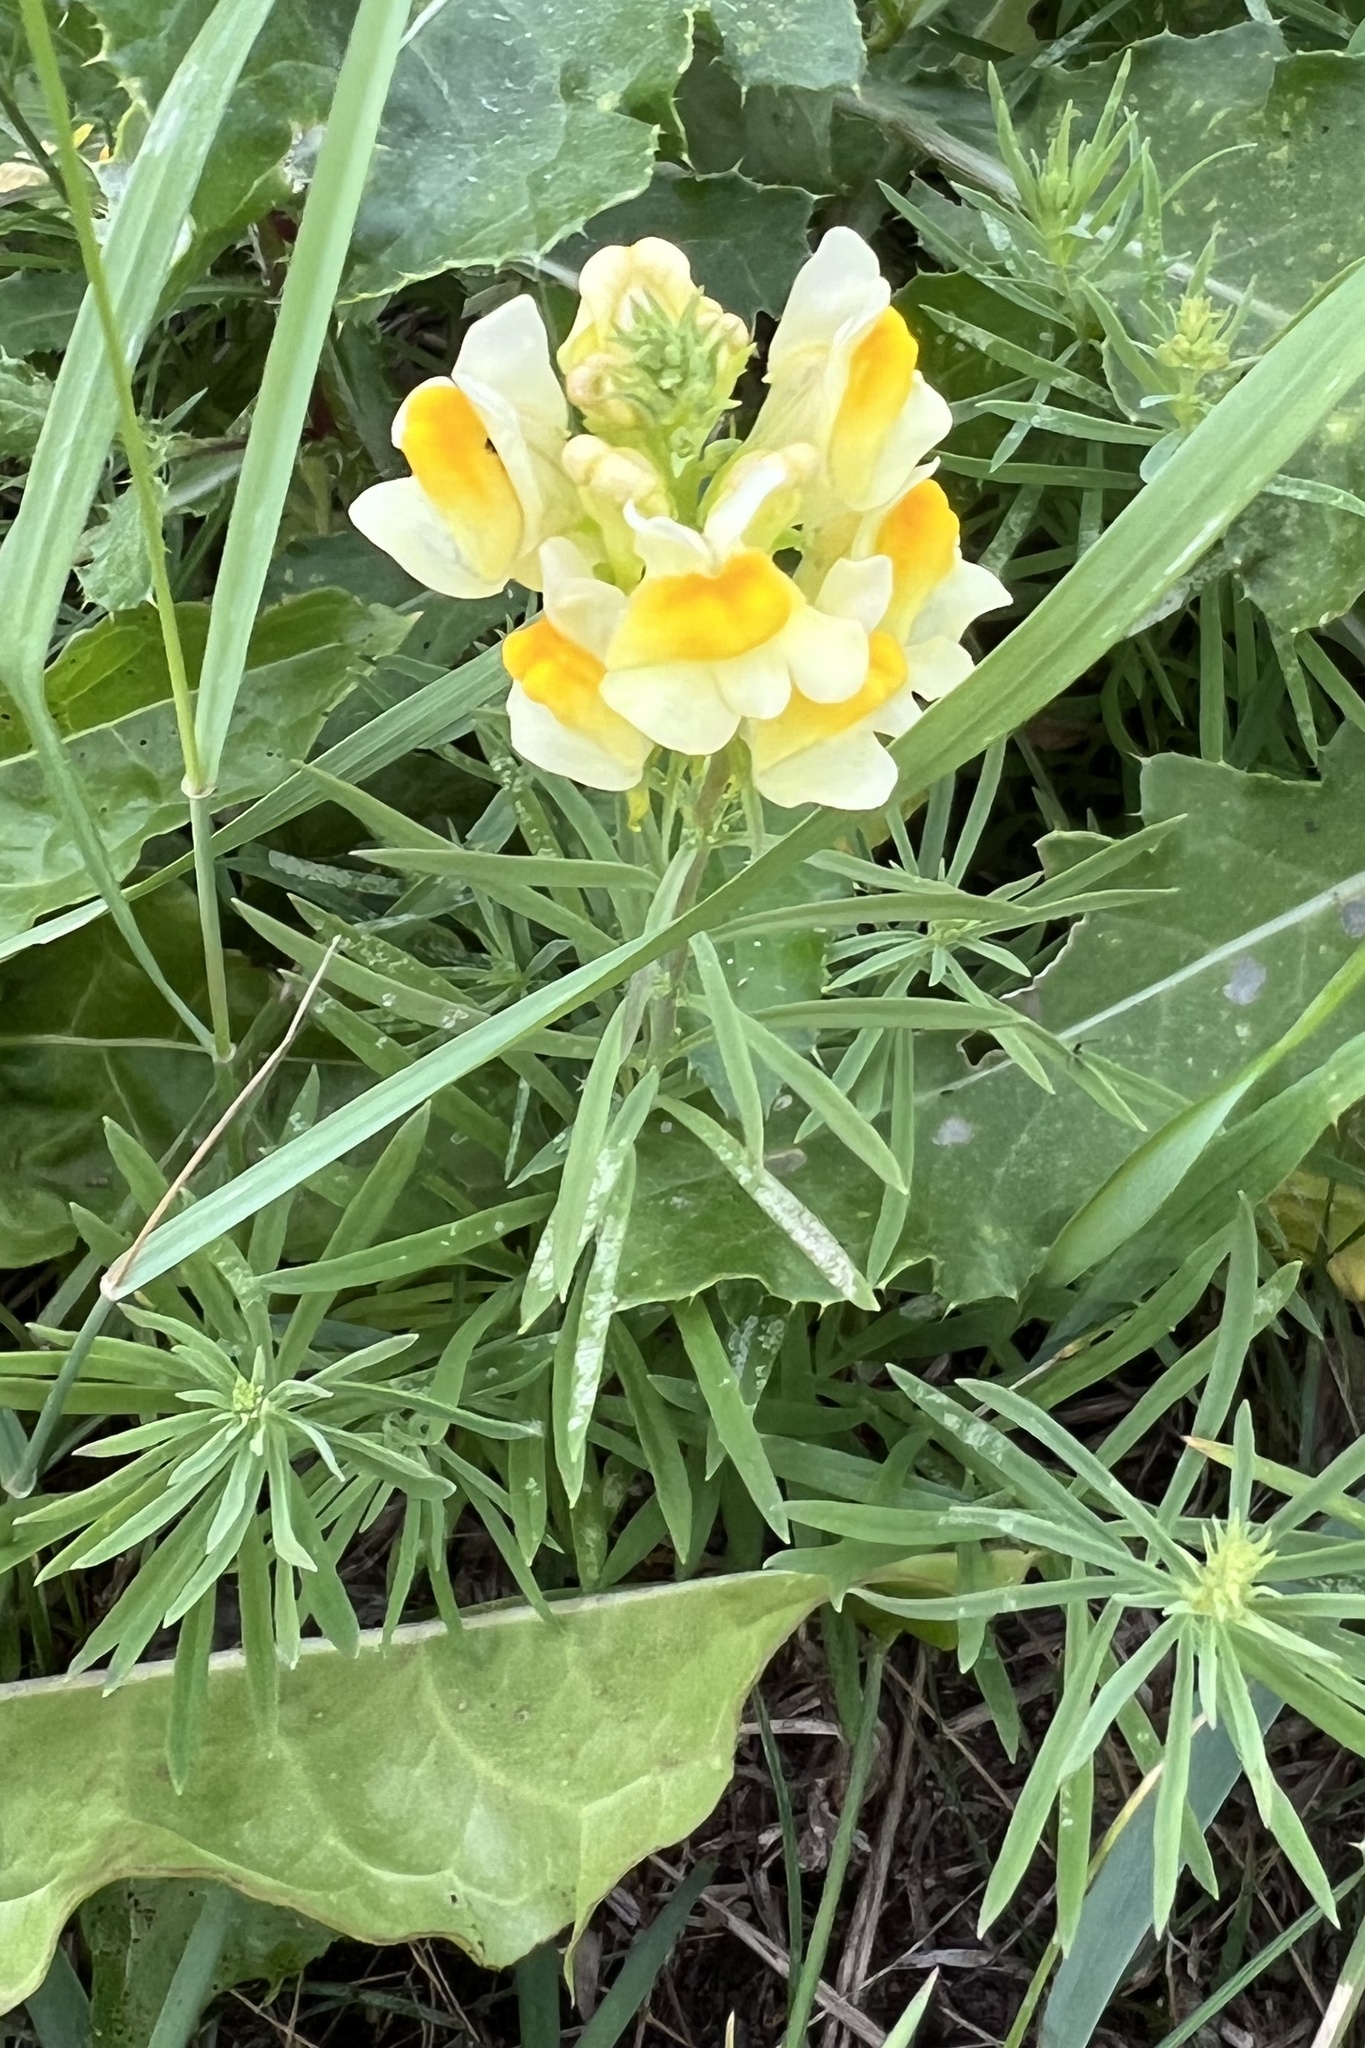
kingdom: Plantae
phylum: Tracheophyta
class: Magnoliopsida
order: Lamiales
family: Plantaginaceae
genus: Linaria
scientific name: Linaria vulgaris
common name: Butter and eggs
